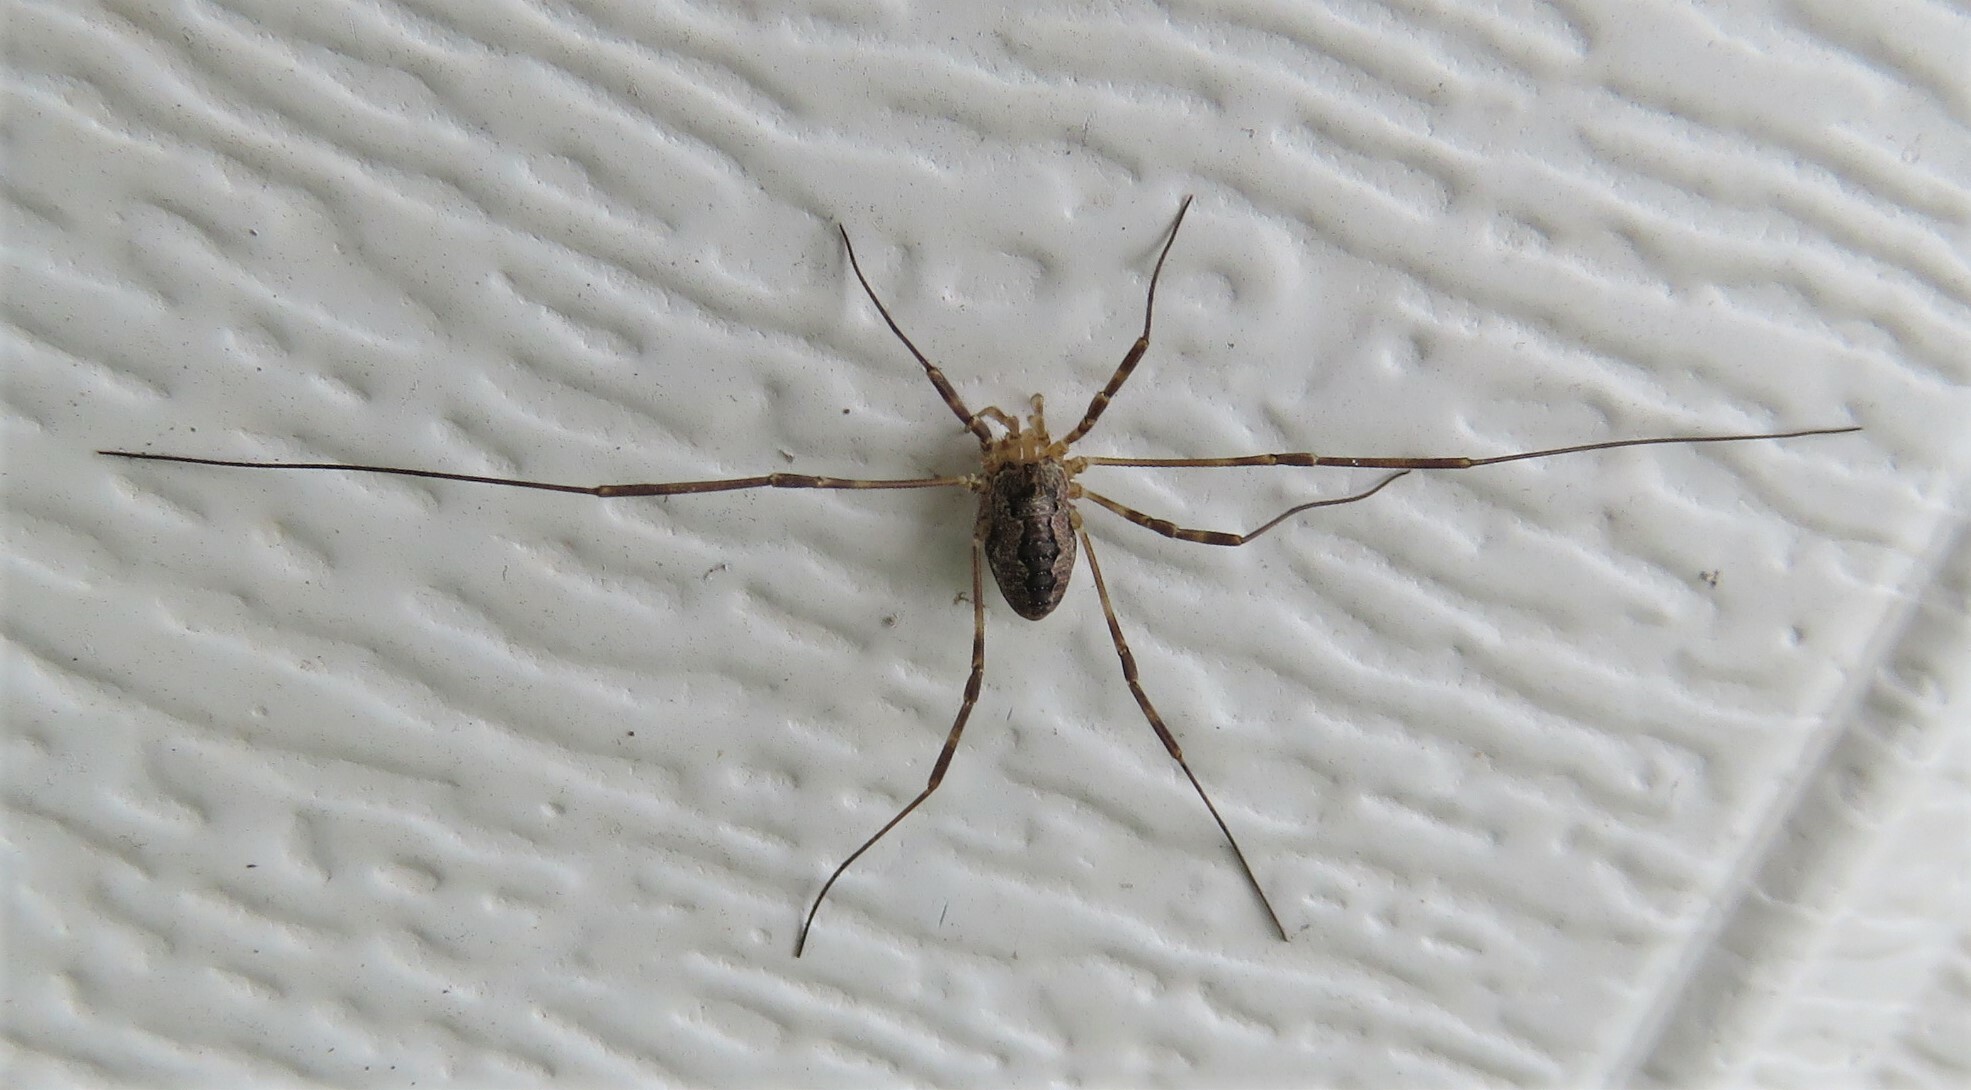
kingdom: Animalia
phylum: Arthropoda
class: Arachnida
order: Opiliones
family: Phalangiidae
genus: Odiellus
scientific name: Odiellus pictus
